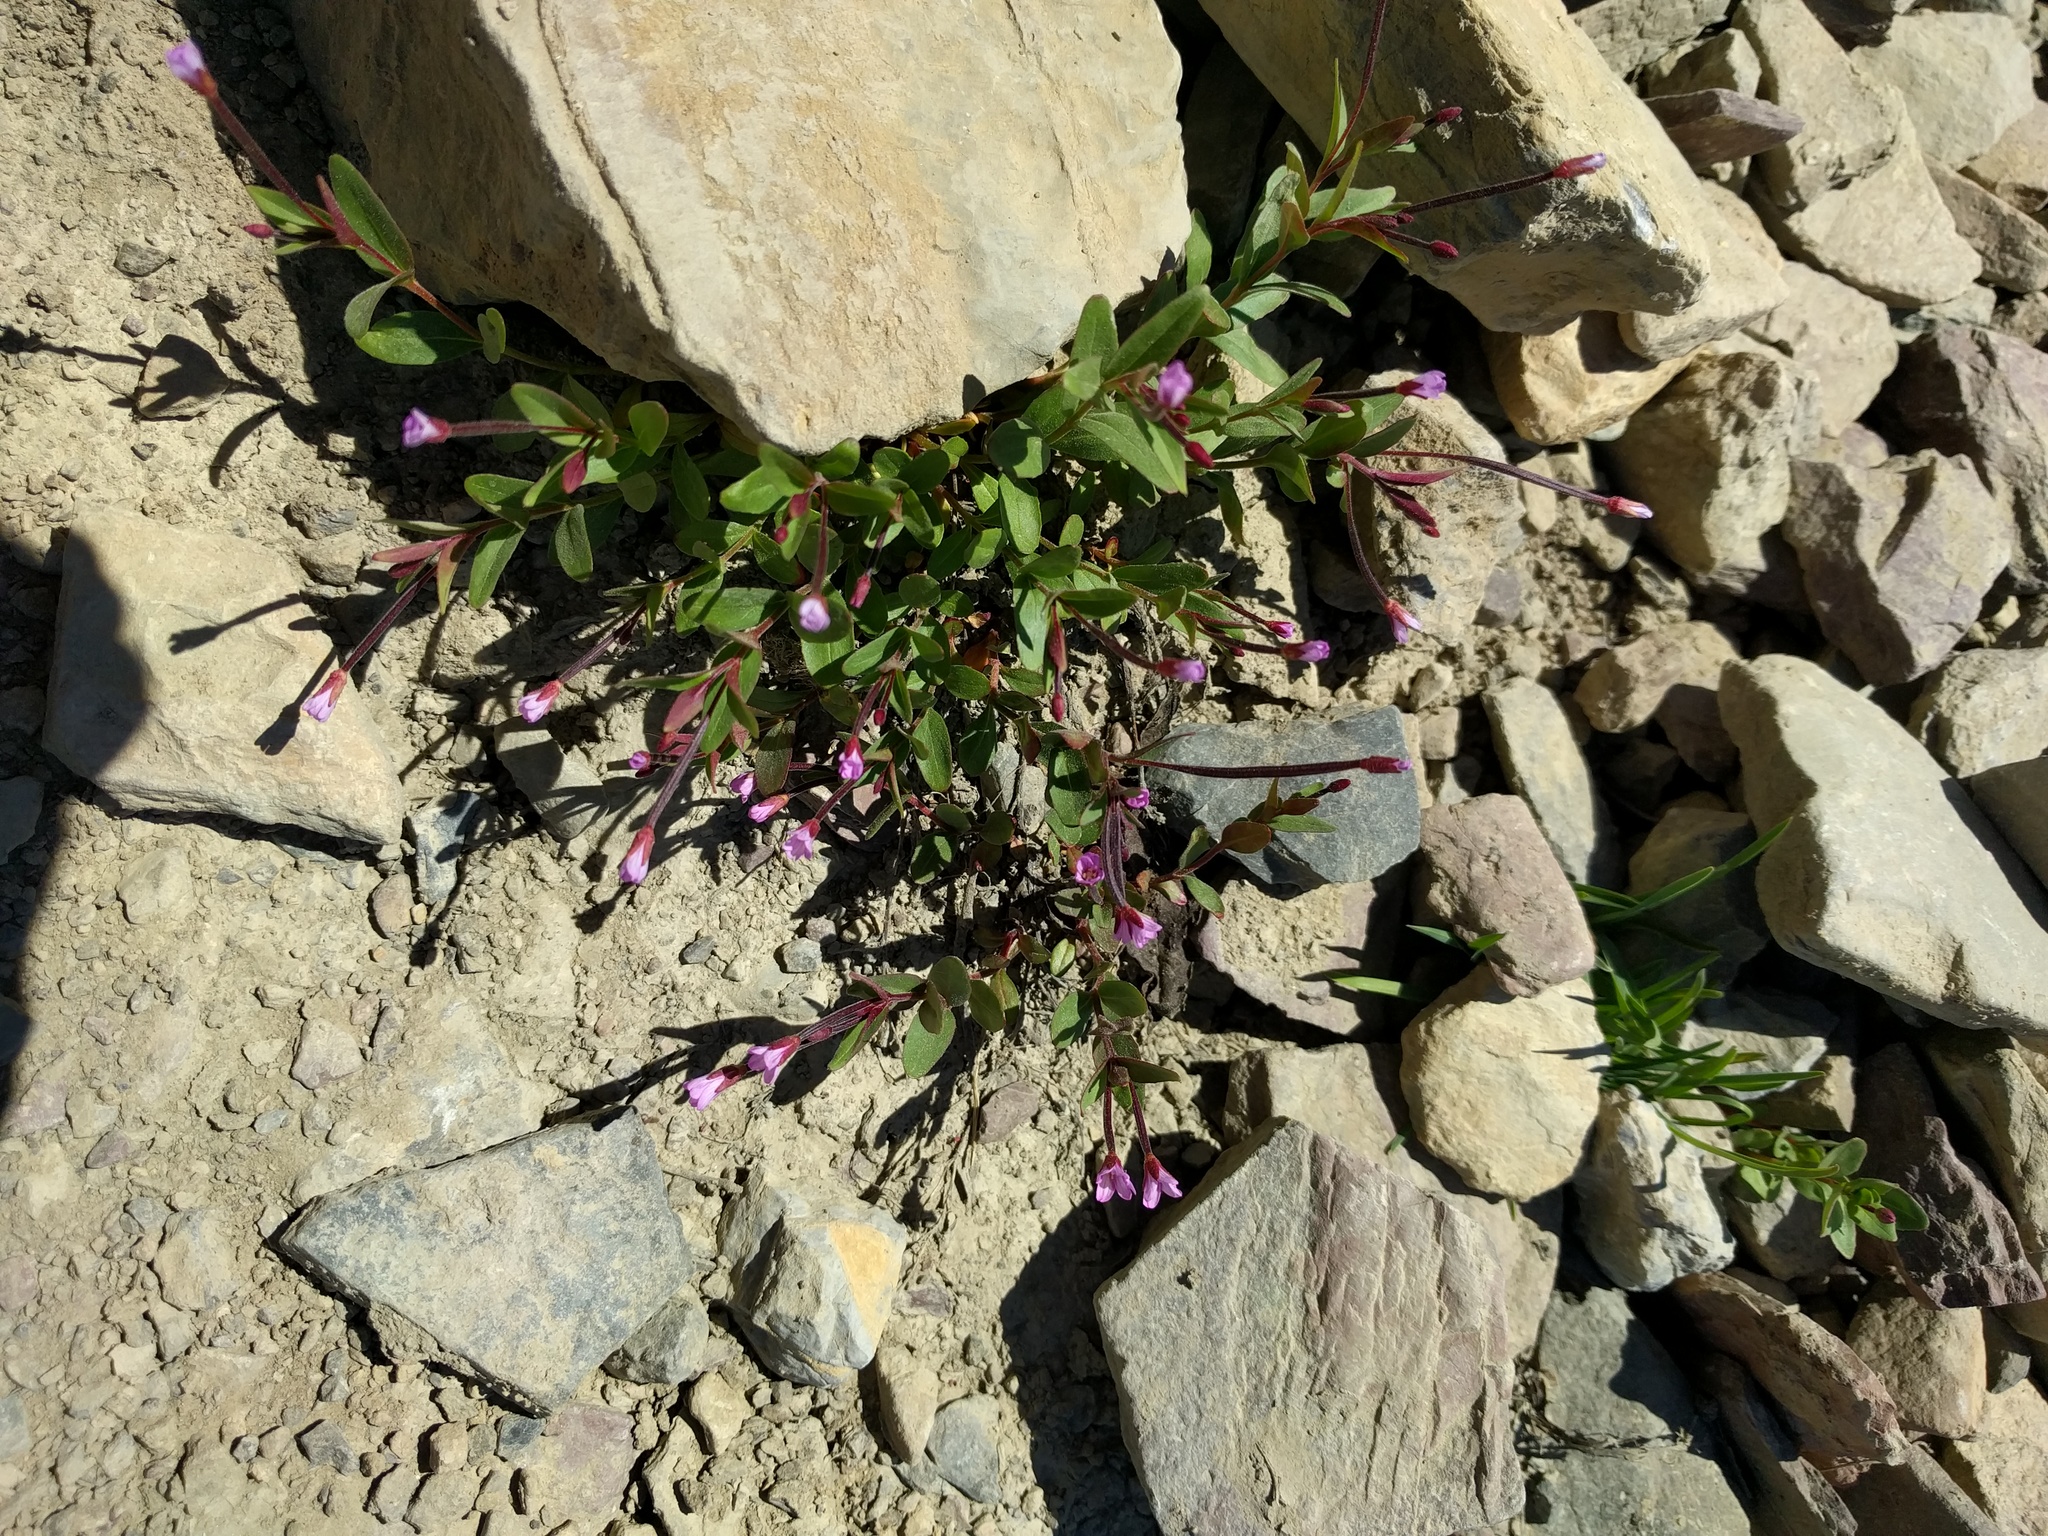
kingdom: Plantae
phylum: Tracheophyta
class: Magnoliopsida
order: Myrtales
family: Onagraceae
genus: Epilobium
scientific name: Epilobium anagallidifolium
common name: Alpine willowherb
